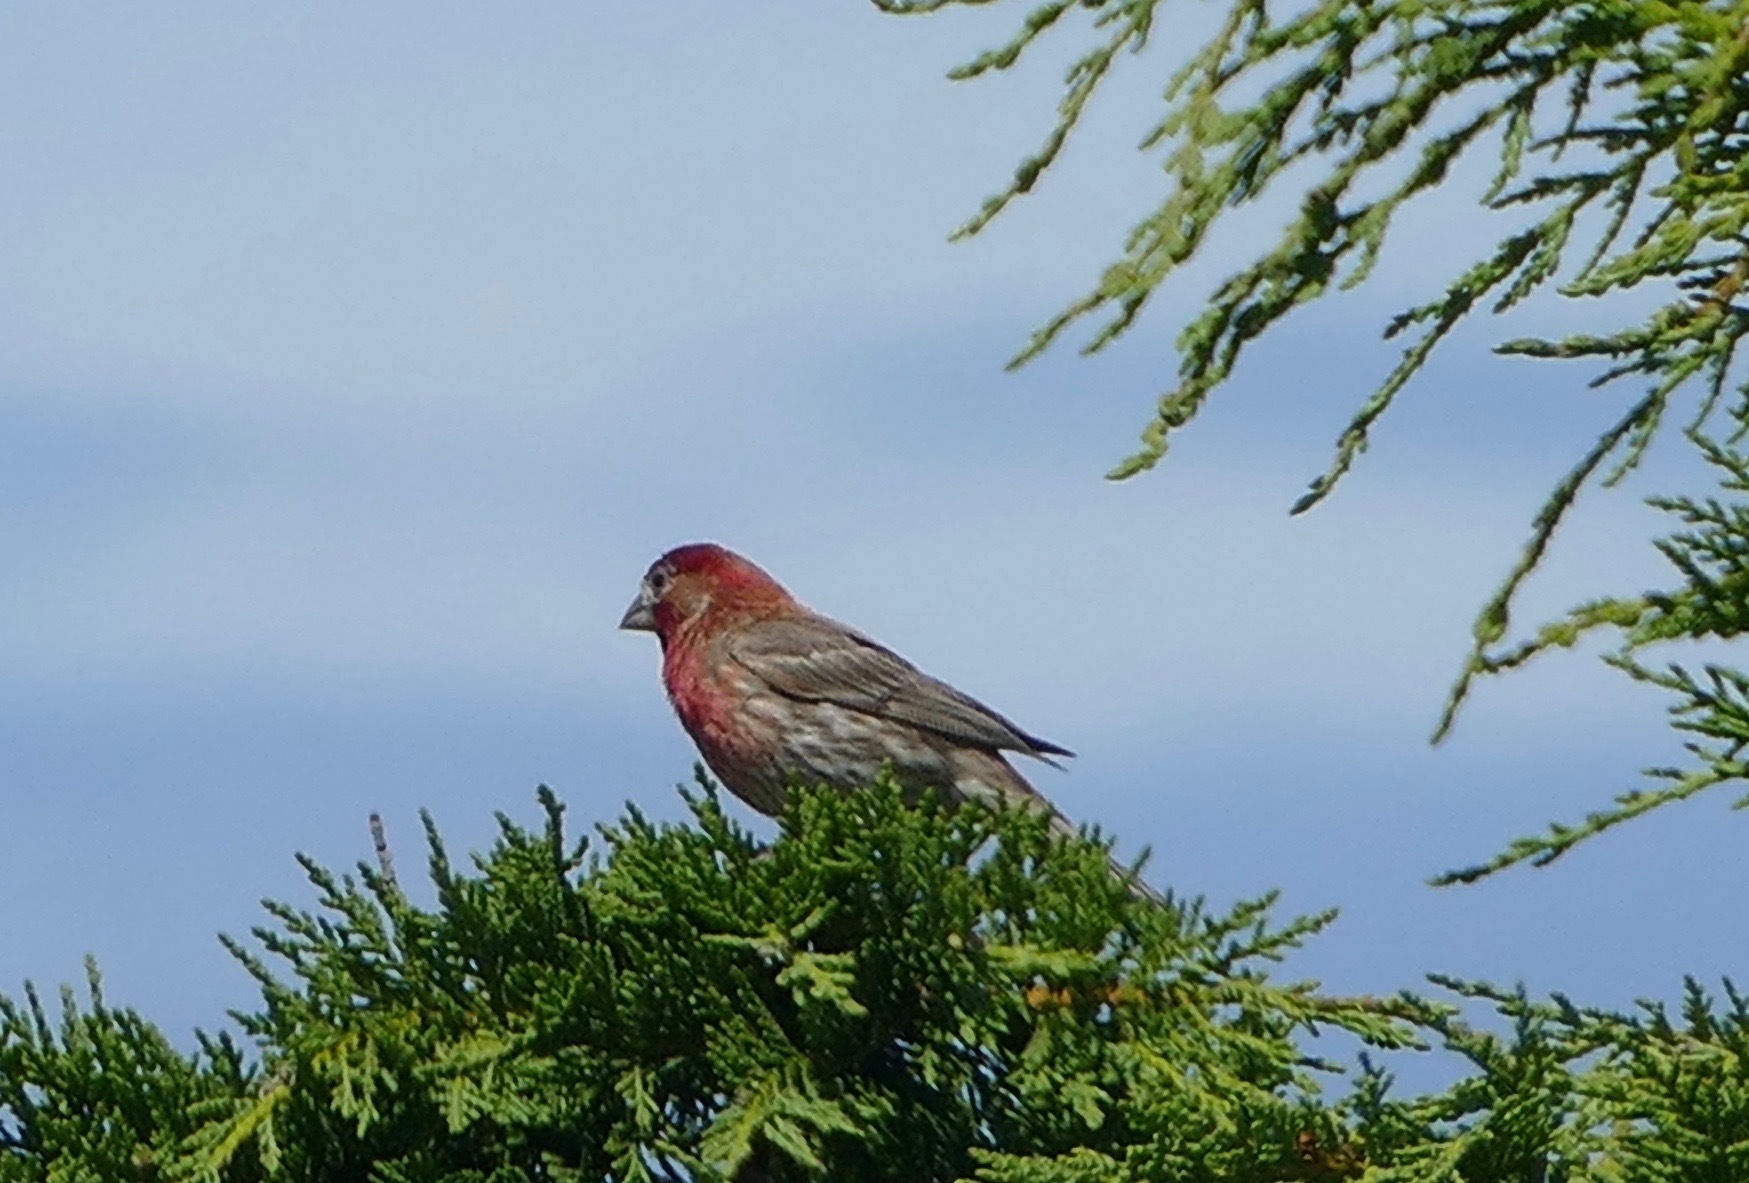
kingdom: Animalia
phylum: Chordata
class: Aves
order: Passeriformes
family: Fringillidae
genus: Haemorhous
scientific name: Haemorhous mexicanus
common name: House finch
